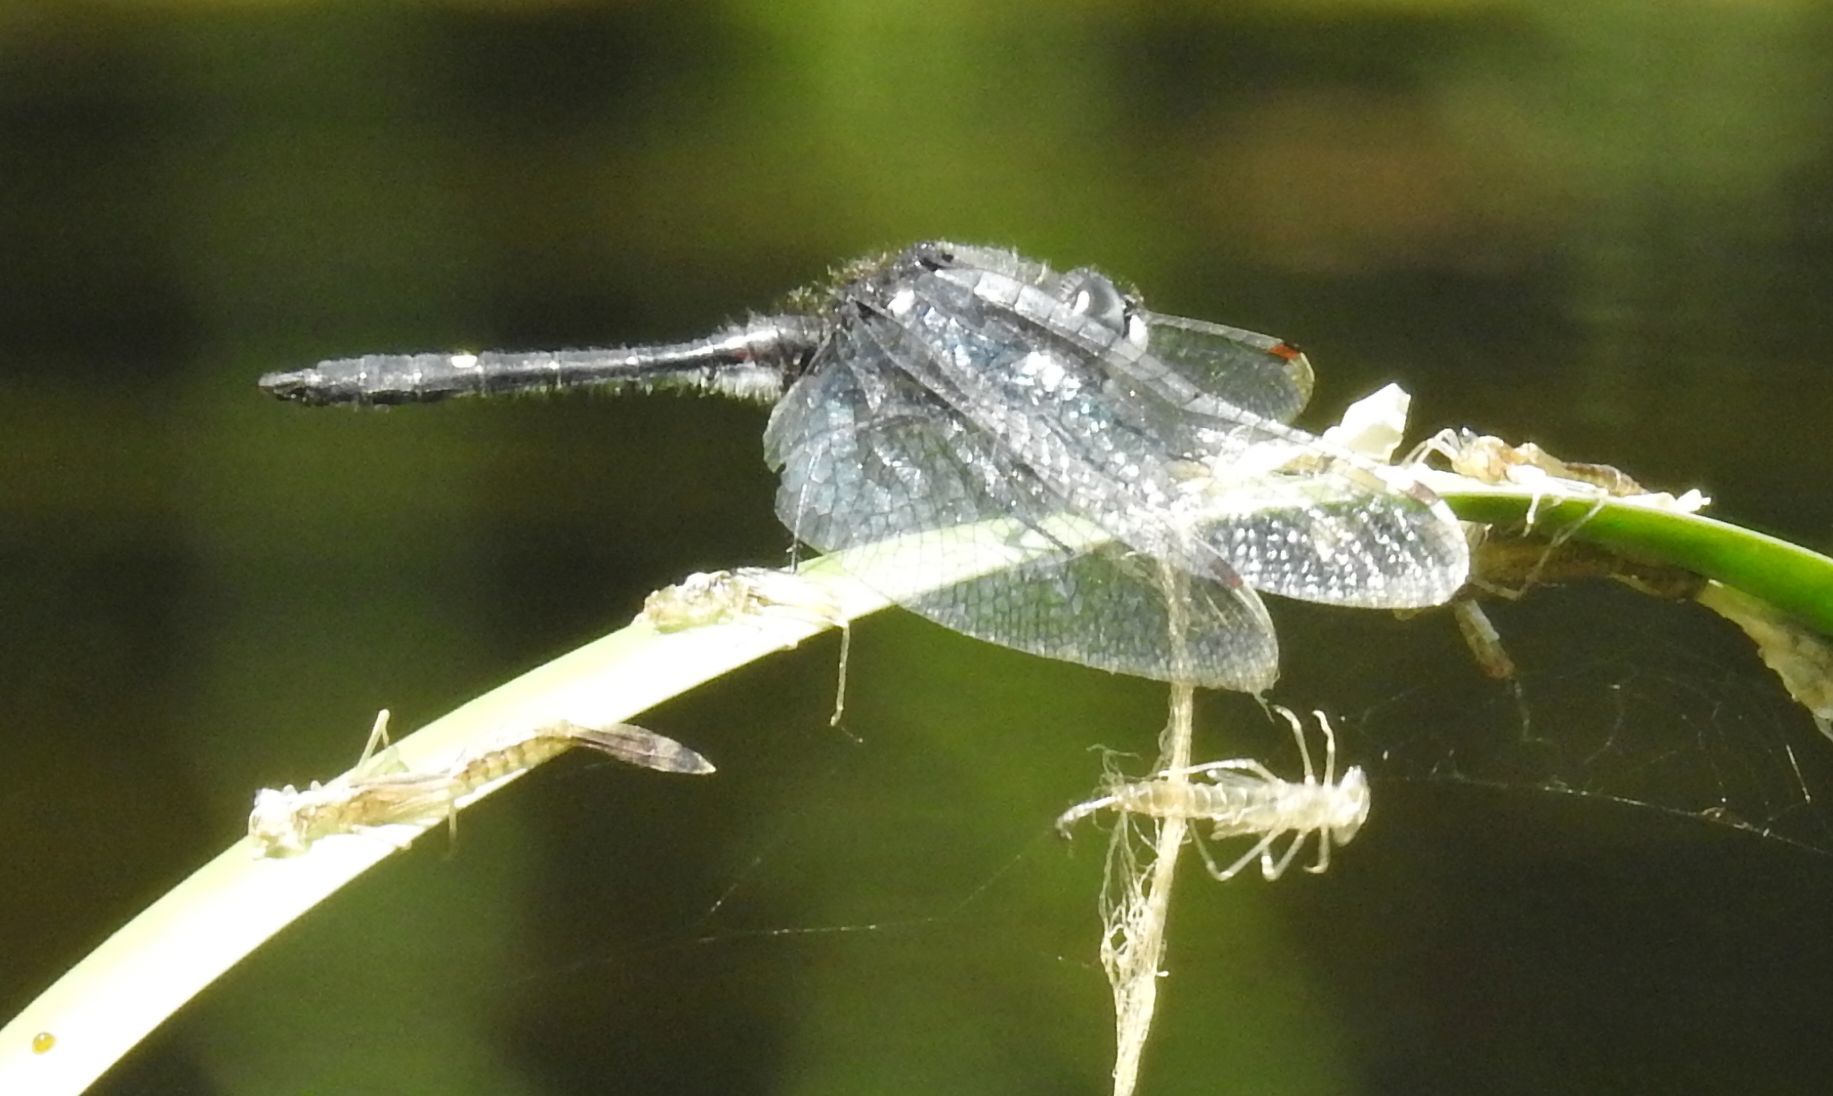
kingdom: Animalia
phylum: Arthropoda
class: Insecta
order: Odonata
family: Libellulidae
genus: Leucorrhinia
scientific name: Leucorrhinia intacta
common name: Dot-tailed whiteface
